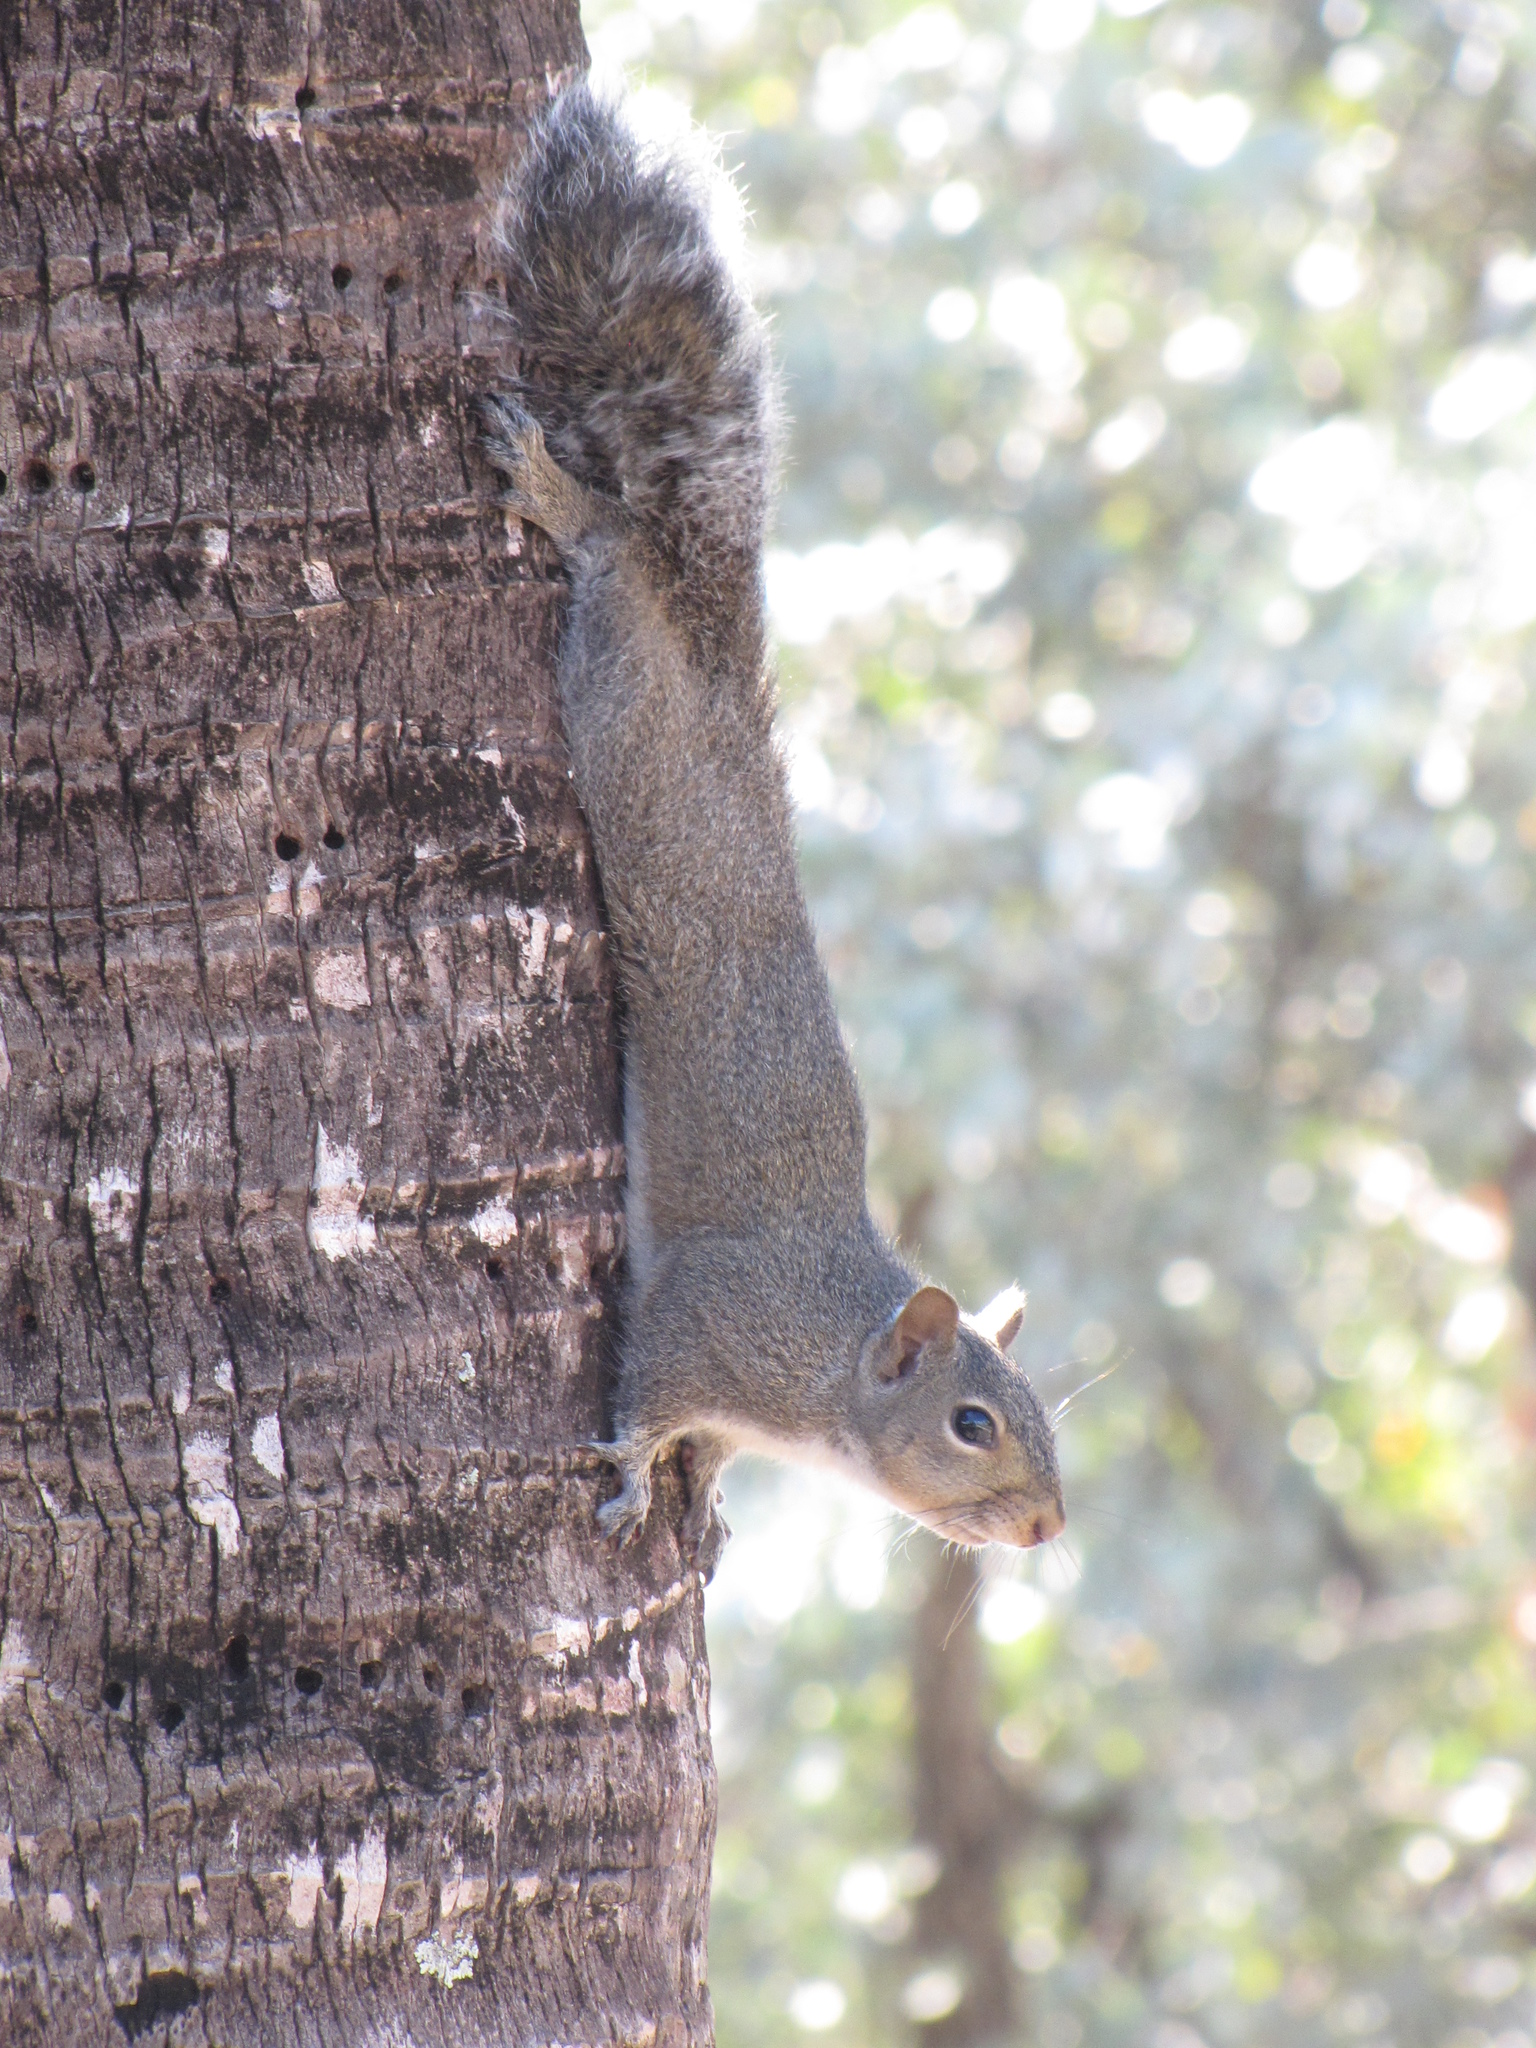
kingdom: Animalia
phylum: Chordata
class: Mammalia
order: Rodentia
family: Sciuridae
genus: Sciurus
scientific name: Sciurus carolinensis
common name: Eastern gray squirrel
